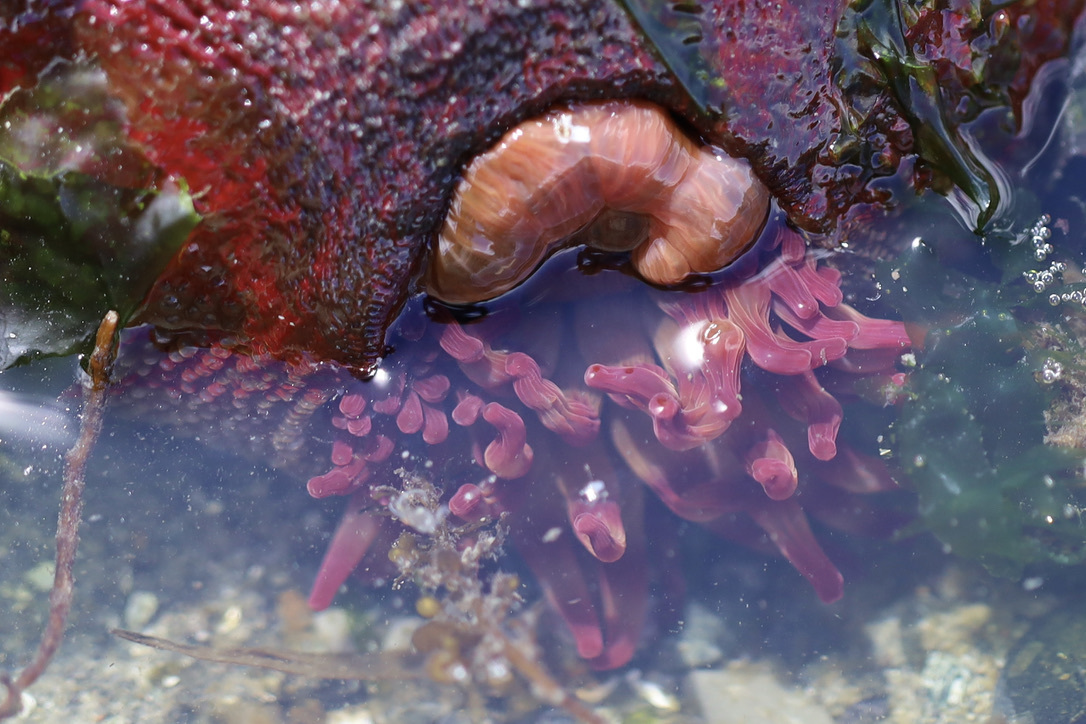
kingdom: Animalia
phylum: Cnidaria
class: Anthozoa
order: Actiniaria
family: Actiniidae
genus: Urticina
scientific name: Urticina grebelnyi
